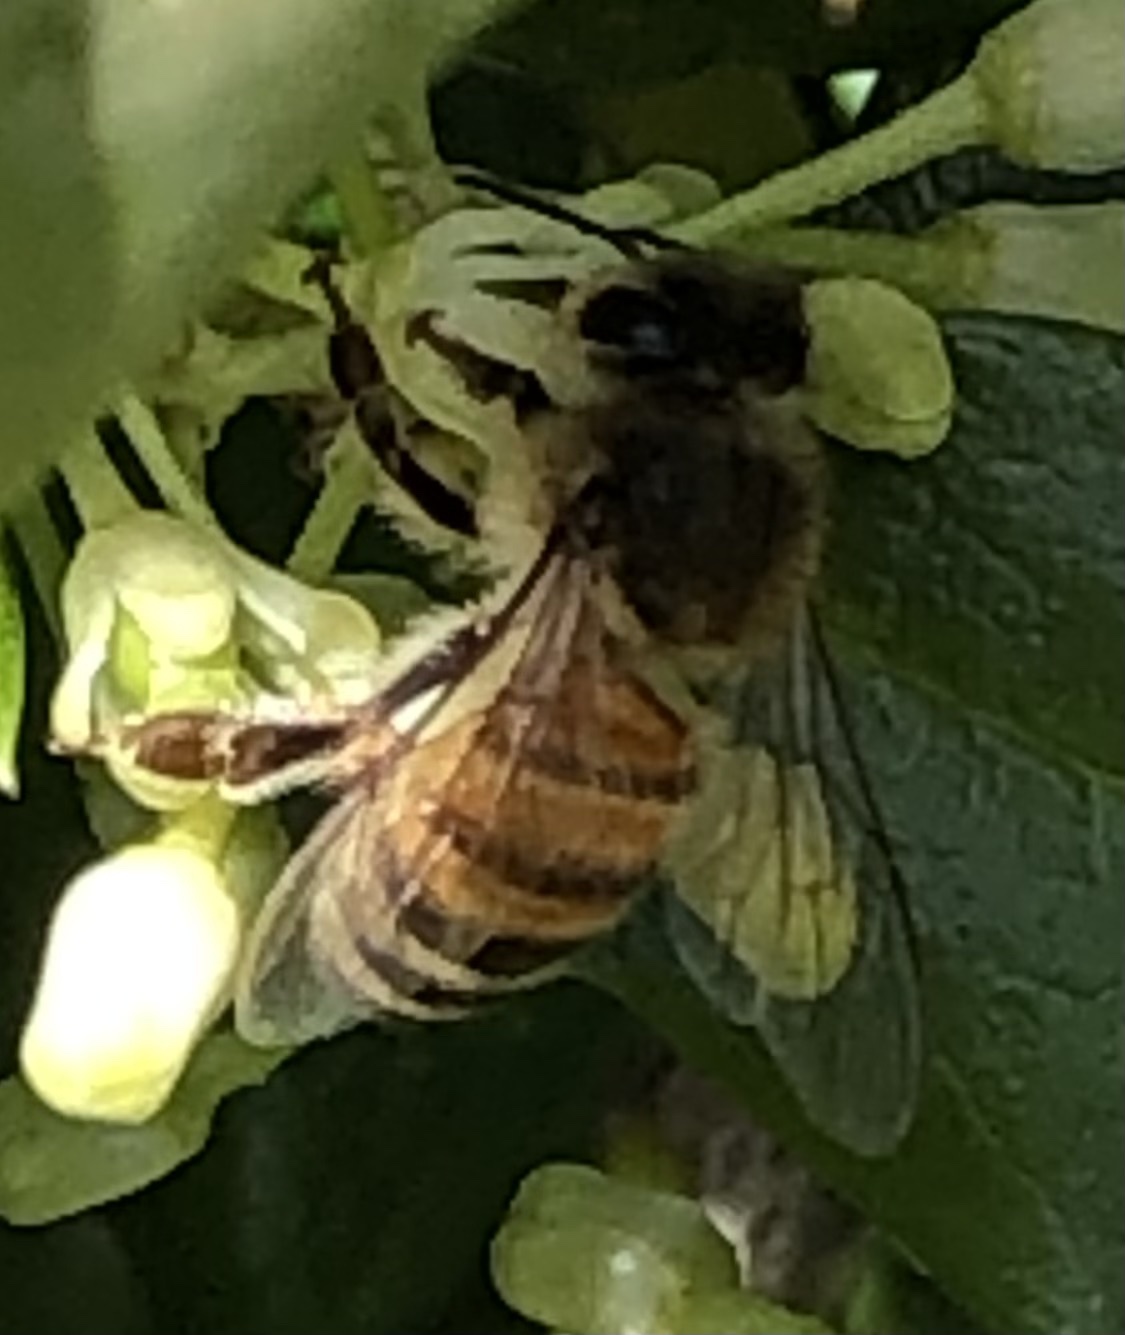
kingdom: Animalia
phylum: Arthropoda
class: Insecta
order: Hymenoptera
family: Apidae
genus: Apis
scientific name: Apis mellifera
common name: Honey bee
